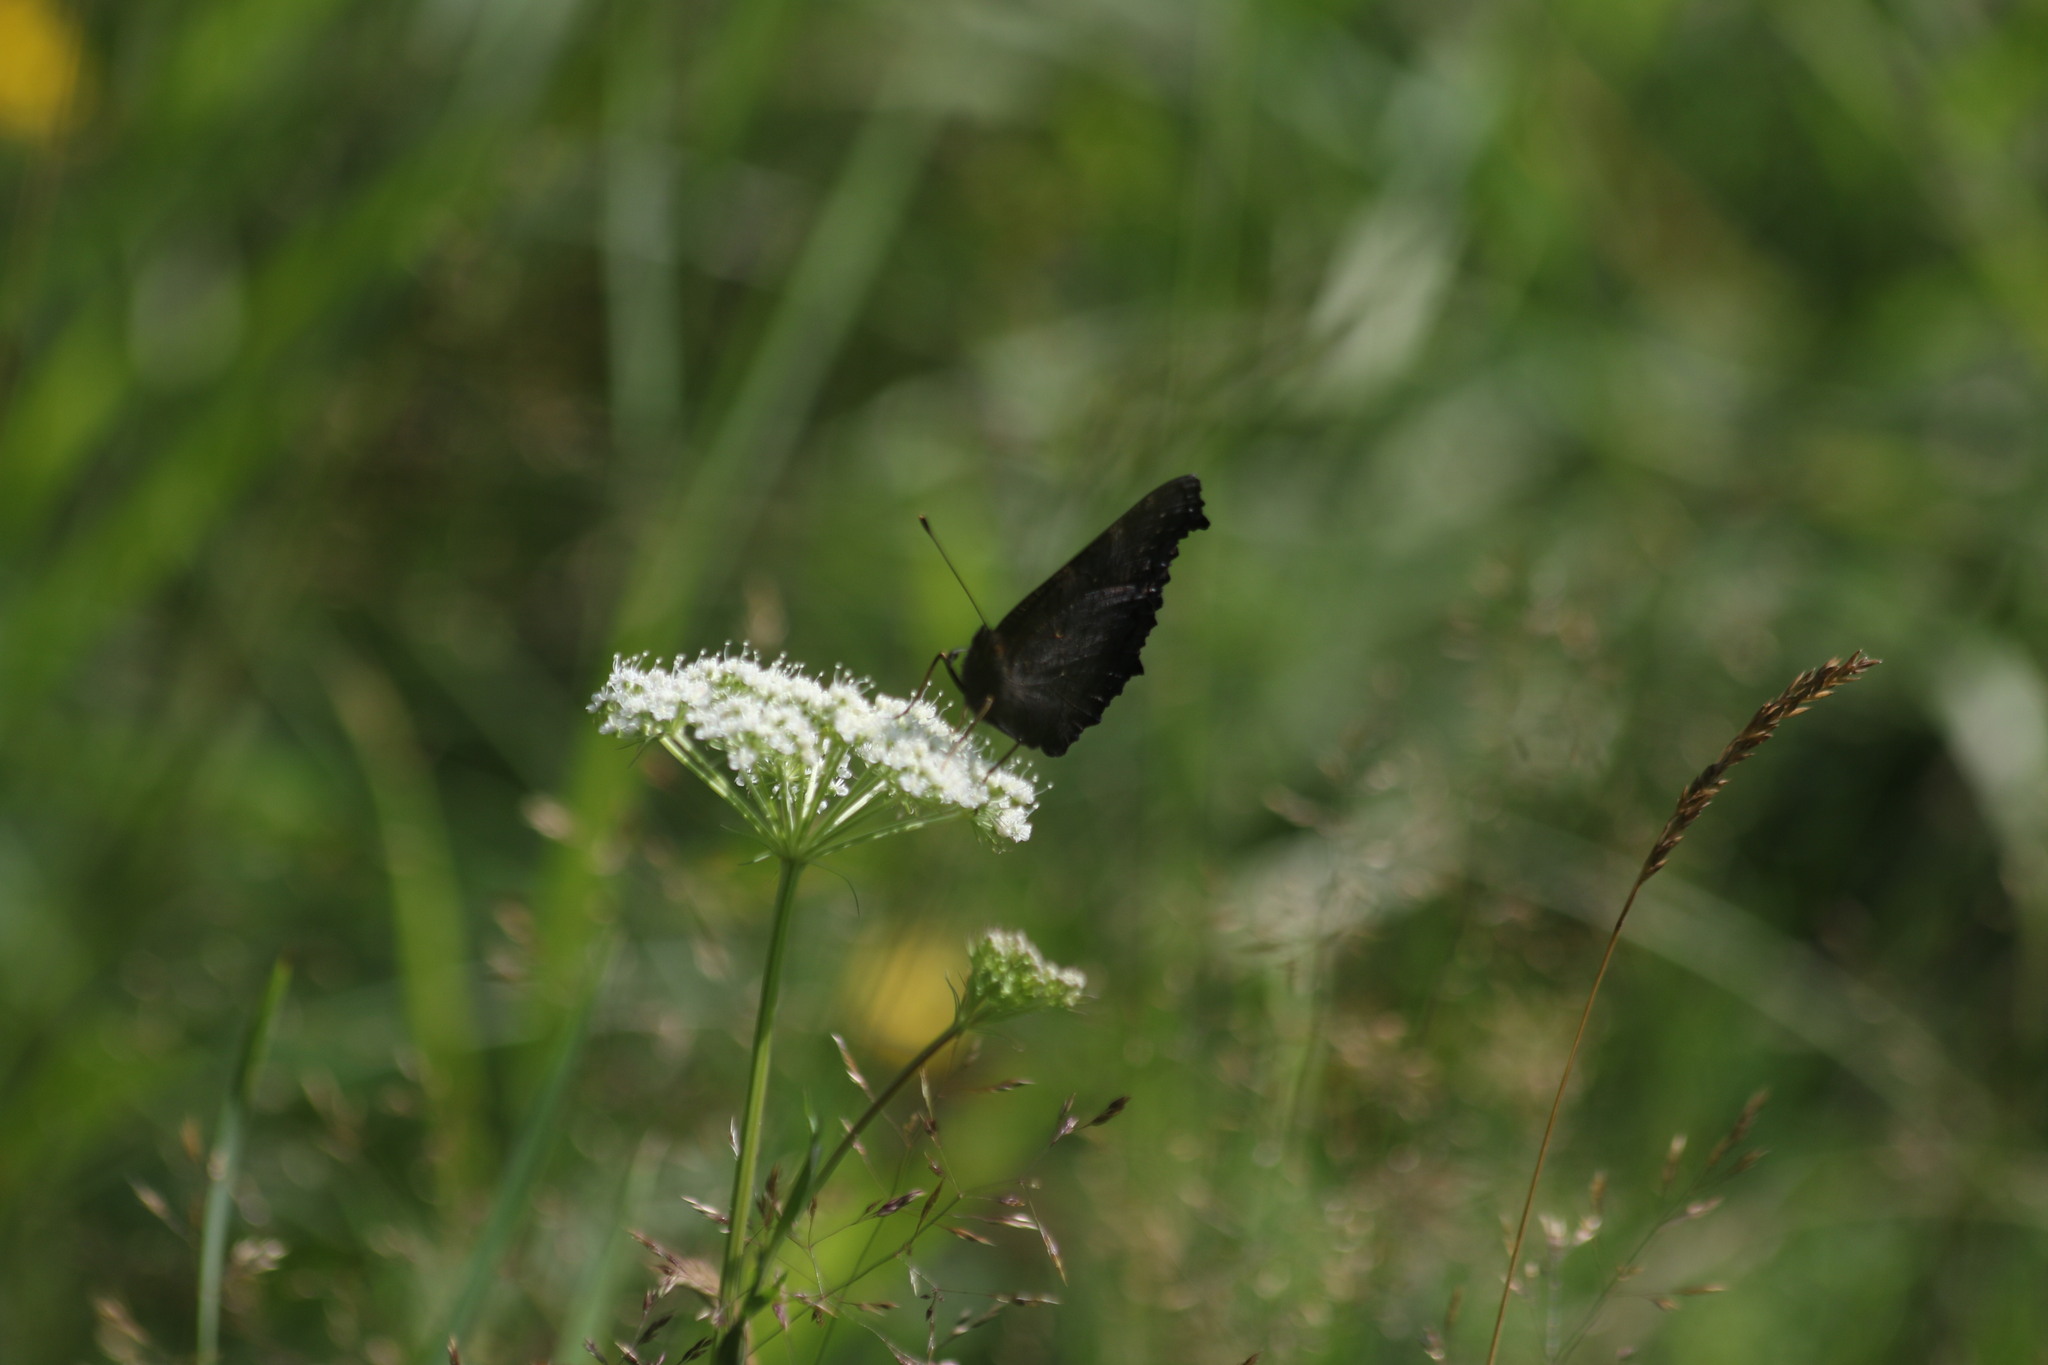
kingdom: Animalia
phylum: Arthropoda
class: Insecta
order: Lepidoptera
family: Nymphalidae
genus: Aglais
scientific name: Aglais io
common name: Peacock
